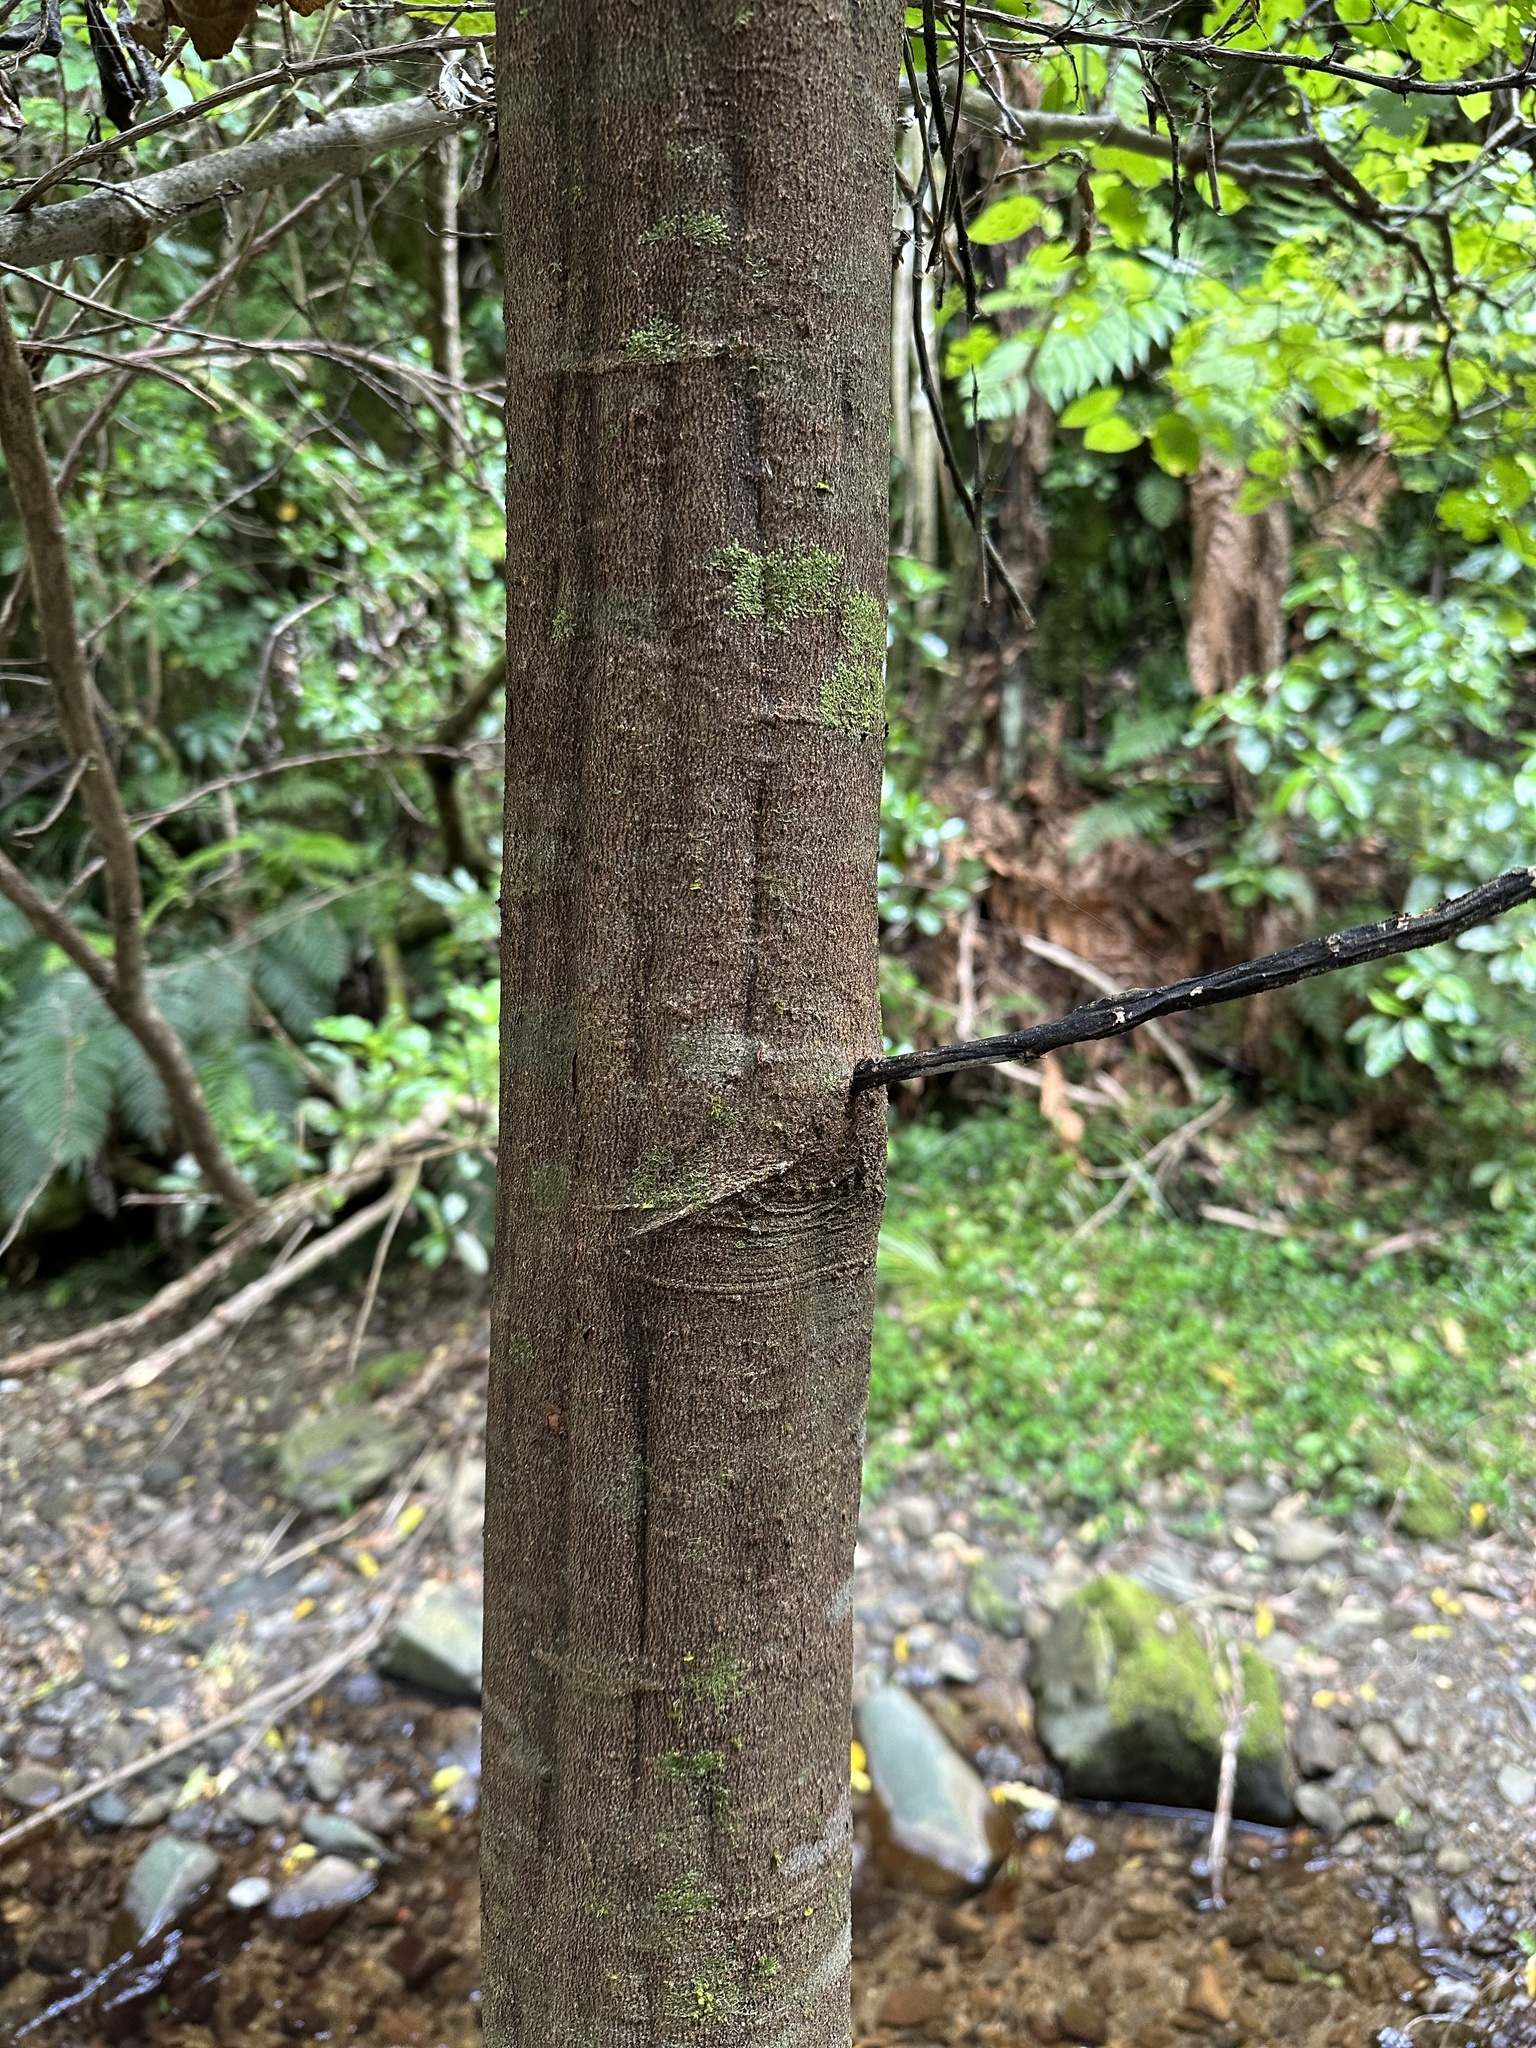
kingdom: Plantae
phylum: Tracheophyta
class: Magnoliopsida
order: Sapindales
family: Sapindaceae
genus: Alectryon
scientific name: Alectryon excelsus
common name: Three kings titoki
